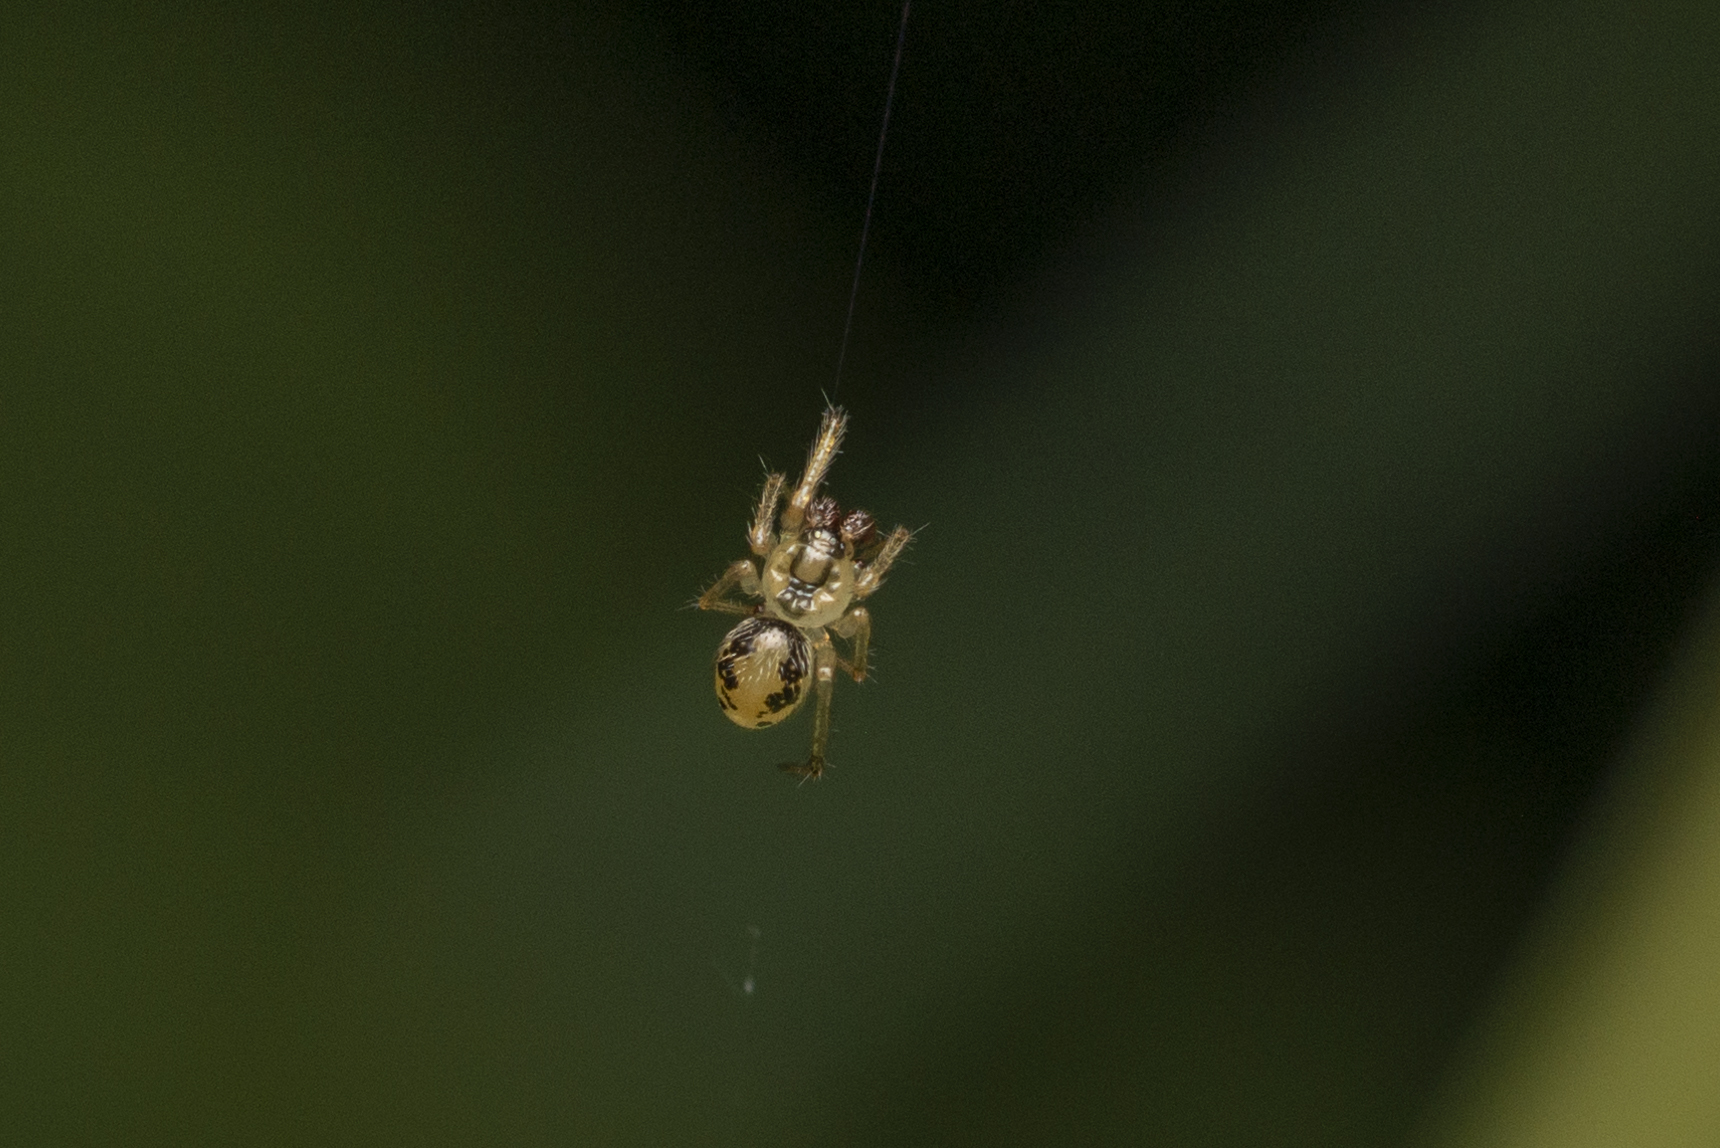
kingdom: Animalia
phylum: Arthropoda
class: Arachnida
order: Araneae
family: Theridiidae
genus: Dipoena
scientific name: Dipoena turriceps
